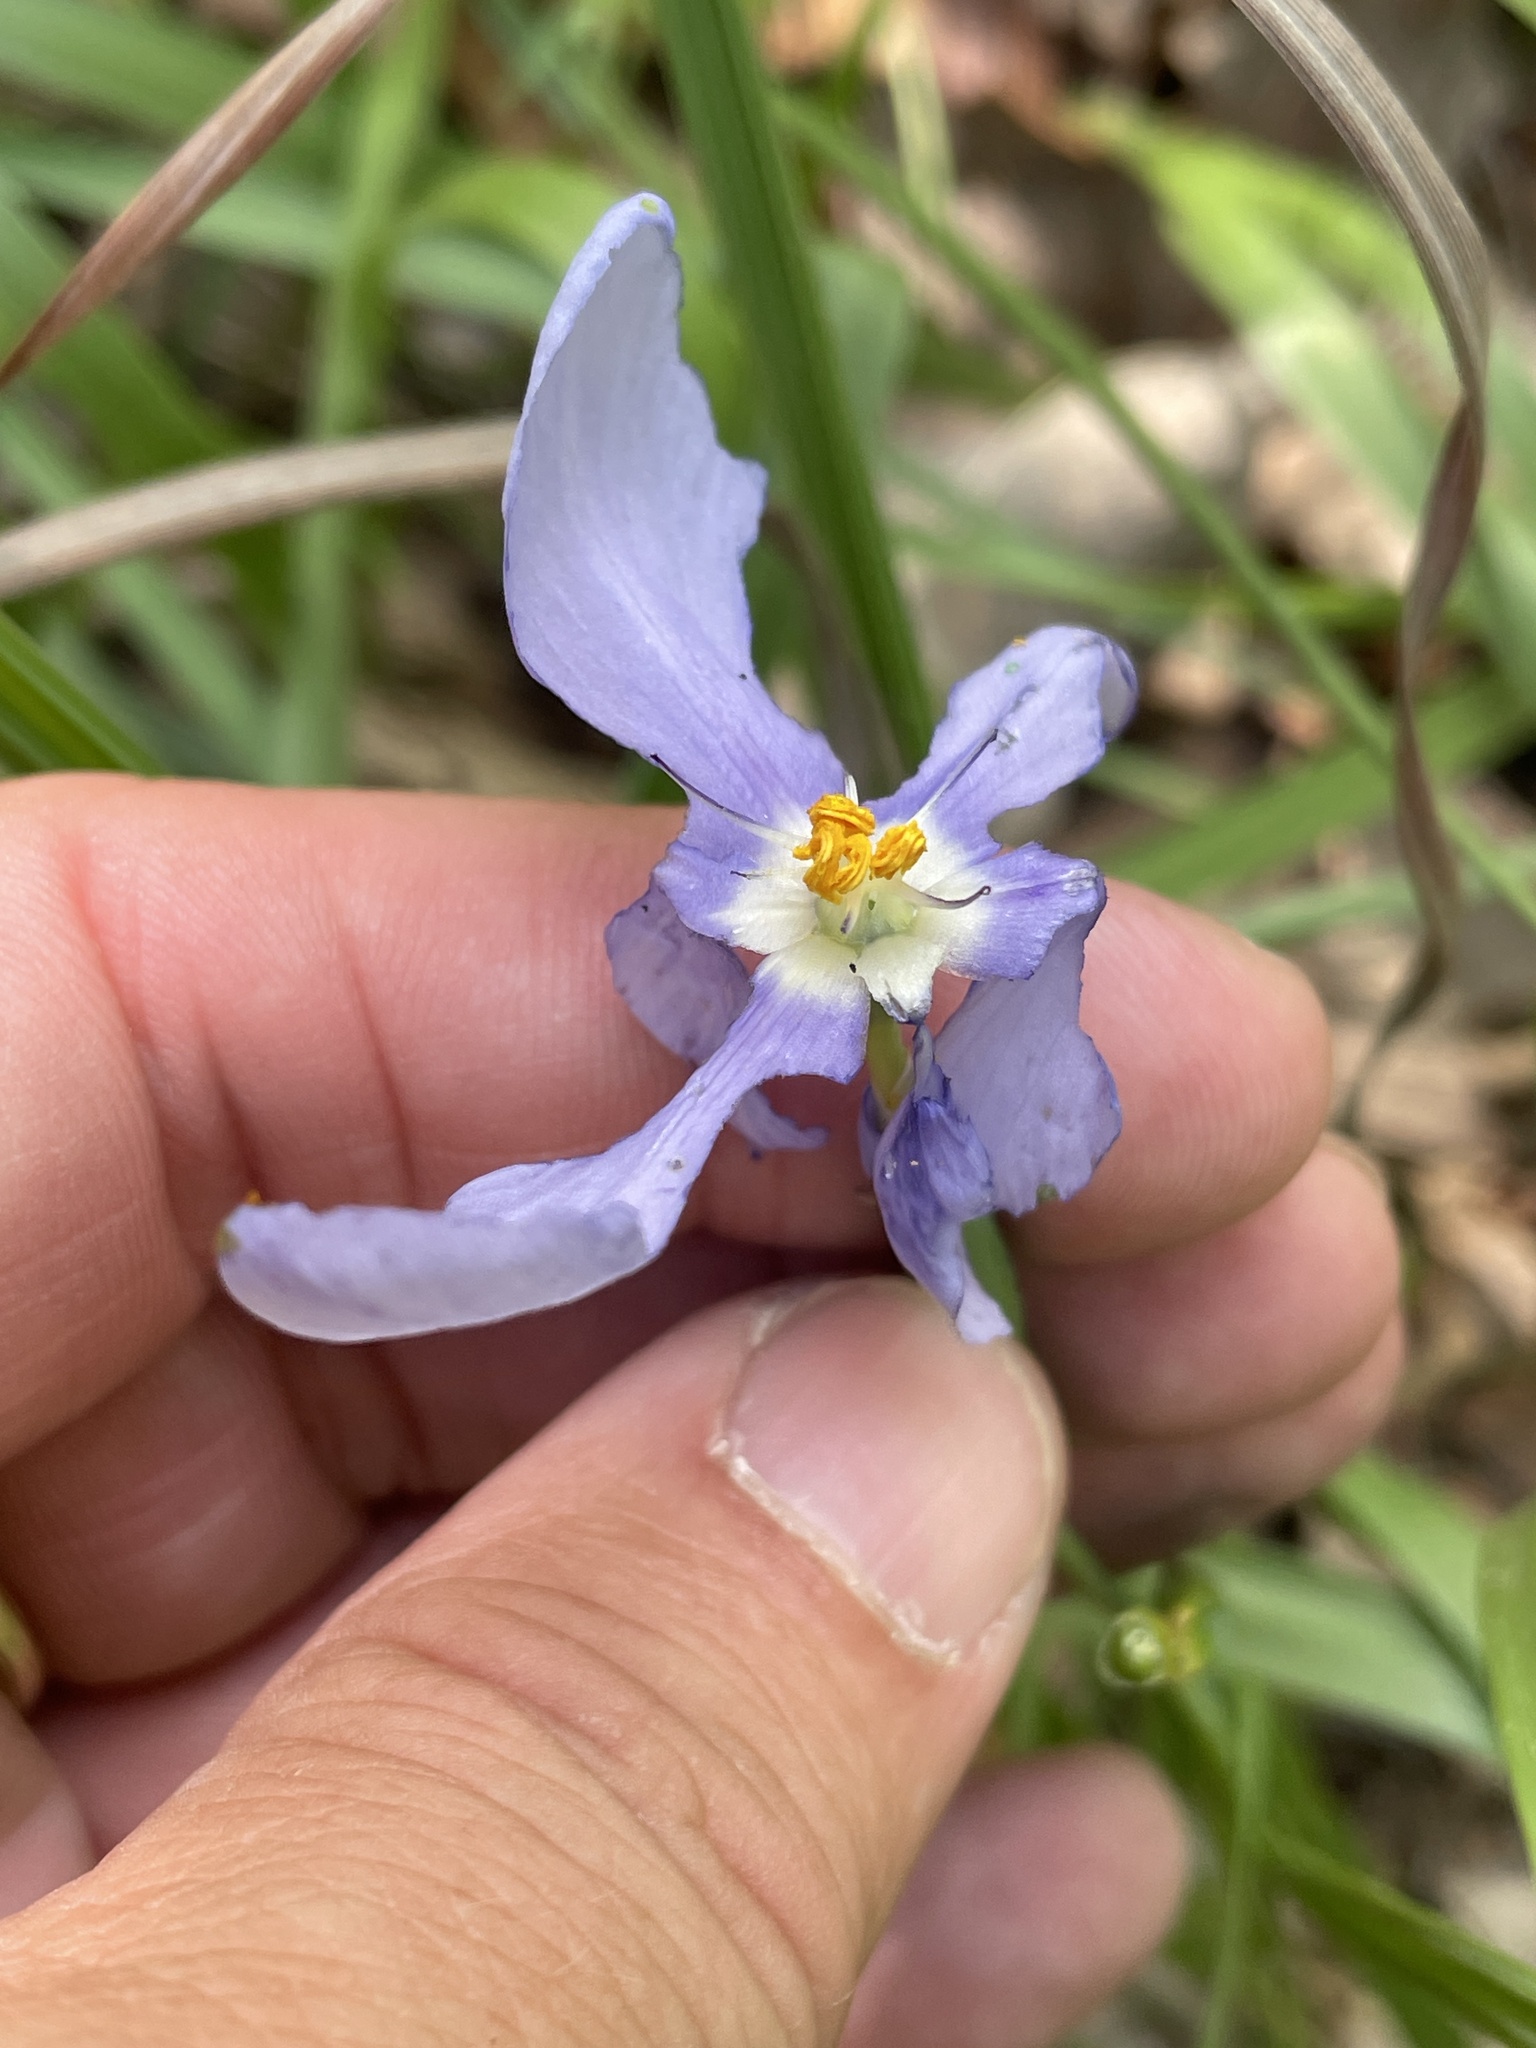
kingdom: Plantae
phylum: Tracheophyta
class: Liliopsida
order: Asparagales
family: Iridaceae
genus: Nemastylis
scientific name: Nemastylis geminiflora
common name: Prairie celestial
